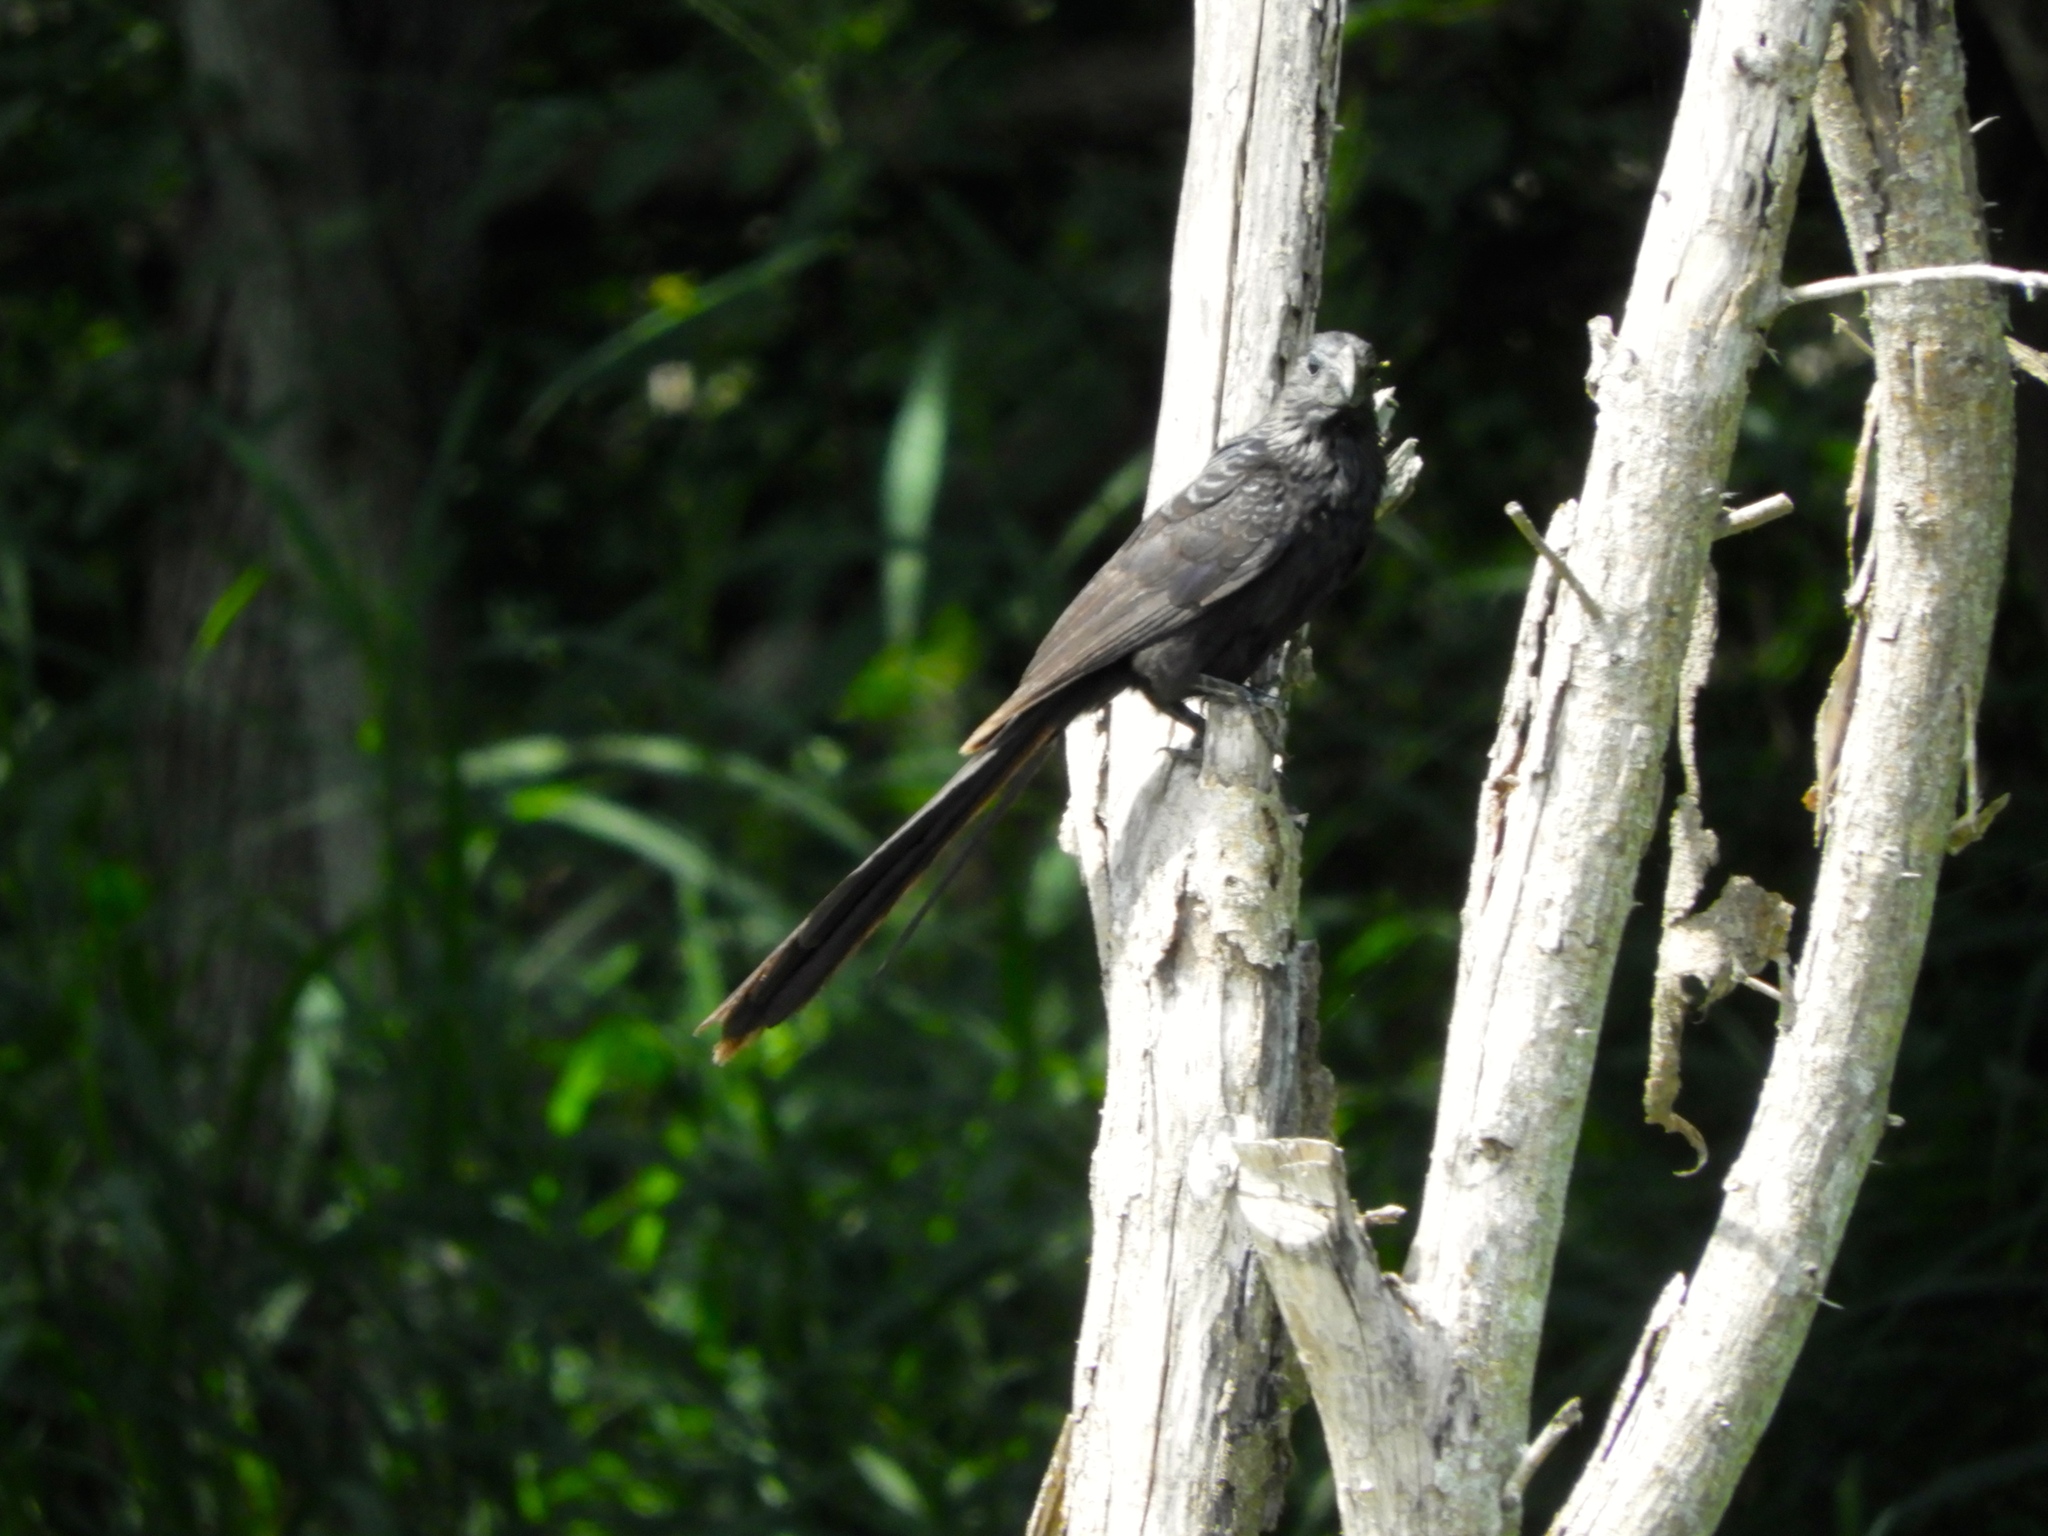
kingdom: Animalia
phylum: Chordata
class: Aves
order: Cuculiformes
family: Cuculidae
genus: Crotophaga
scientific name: Crotophaga sulcirostris
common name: Groove-billed ani
